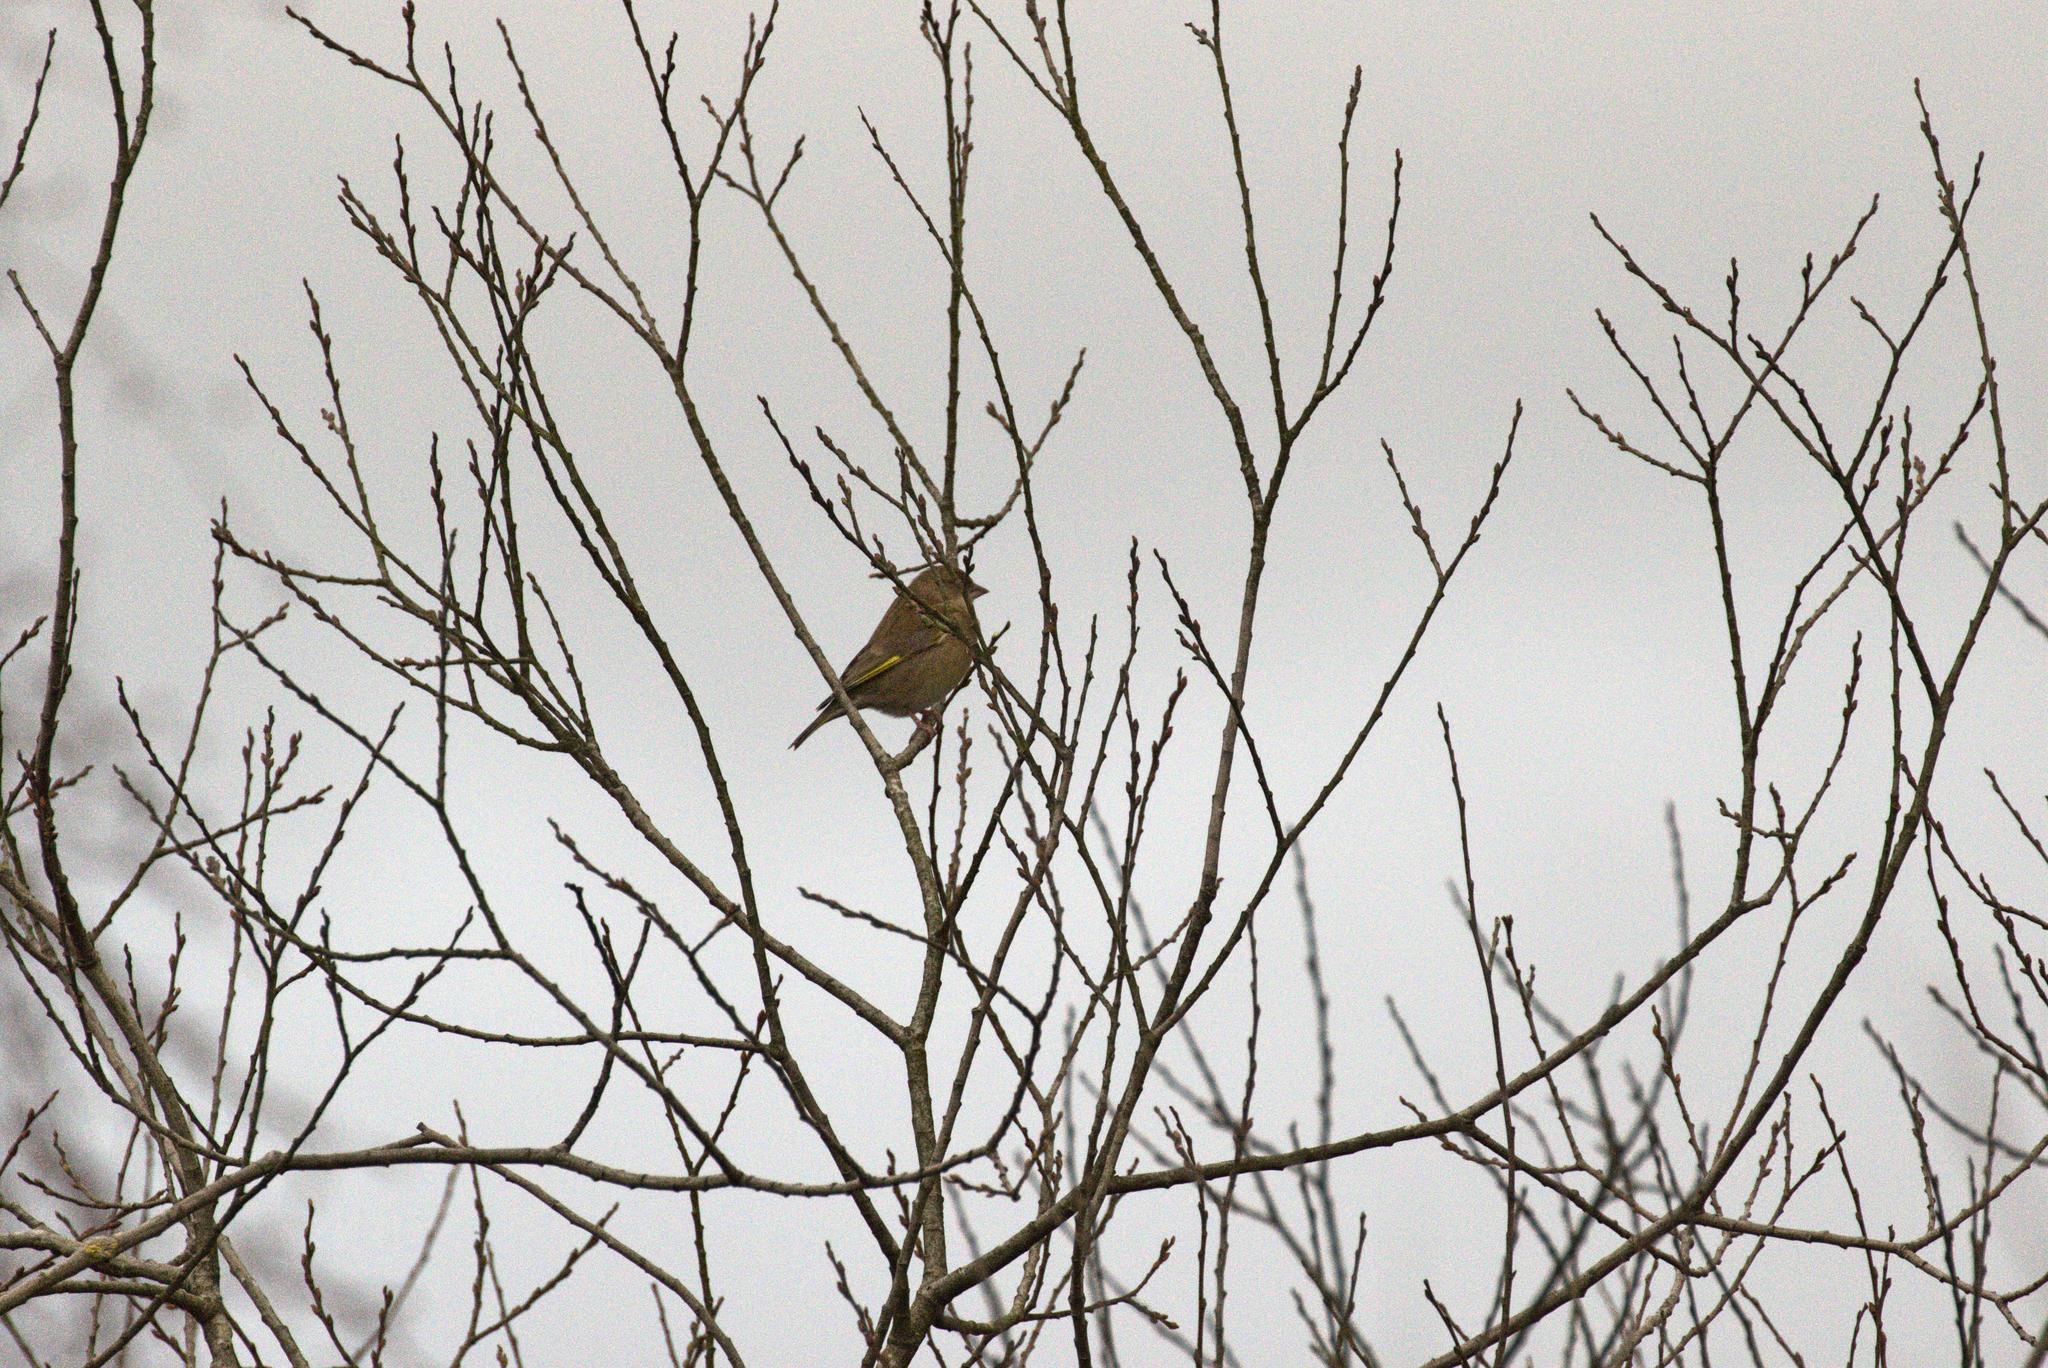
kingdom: Plantae
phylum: Tracheophyta
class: Liliopsida
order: Poales
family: Poaceae
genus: Chloris
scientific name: Chloris chloris
